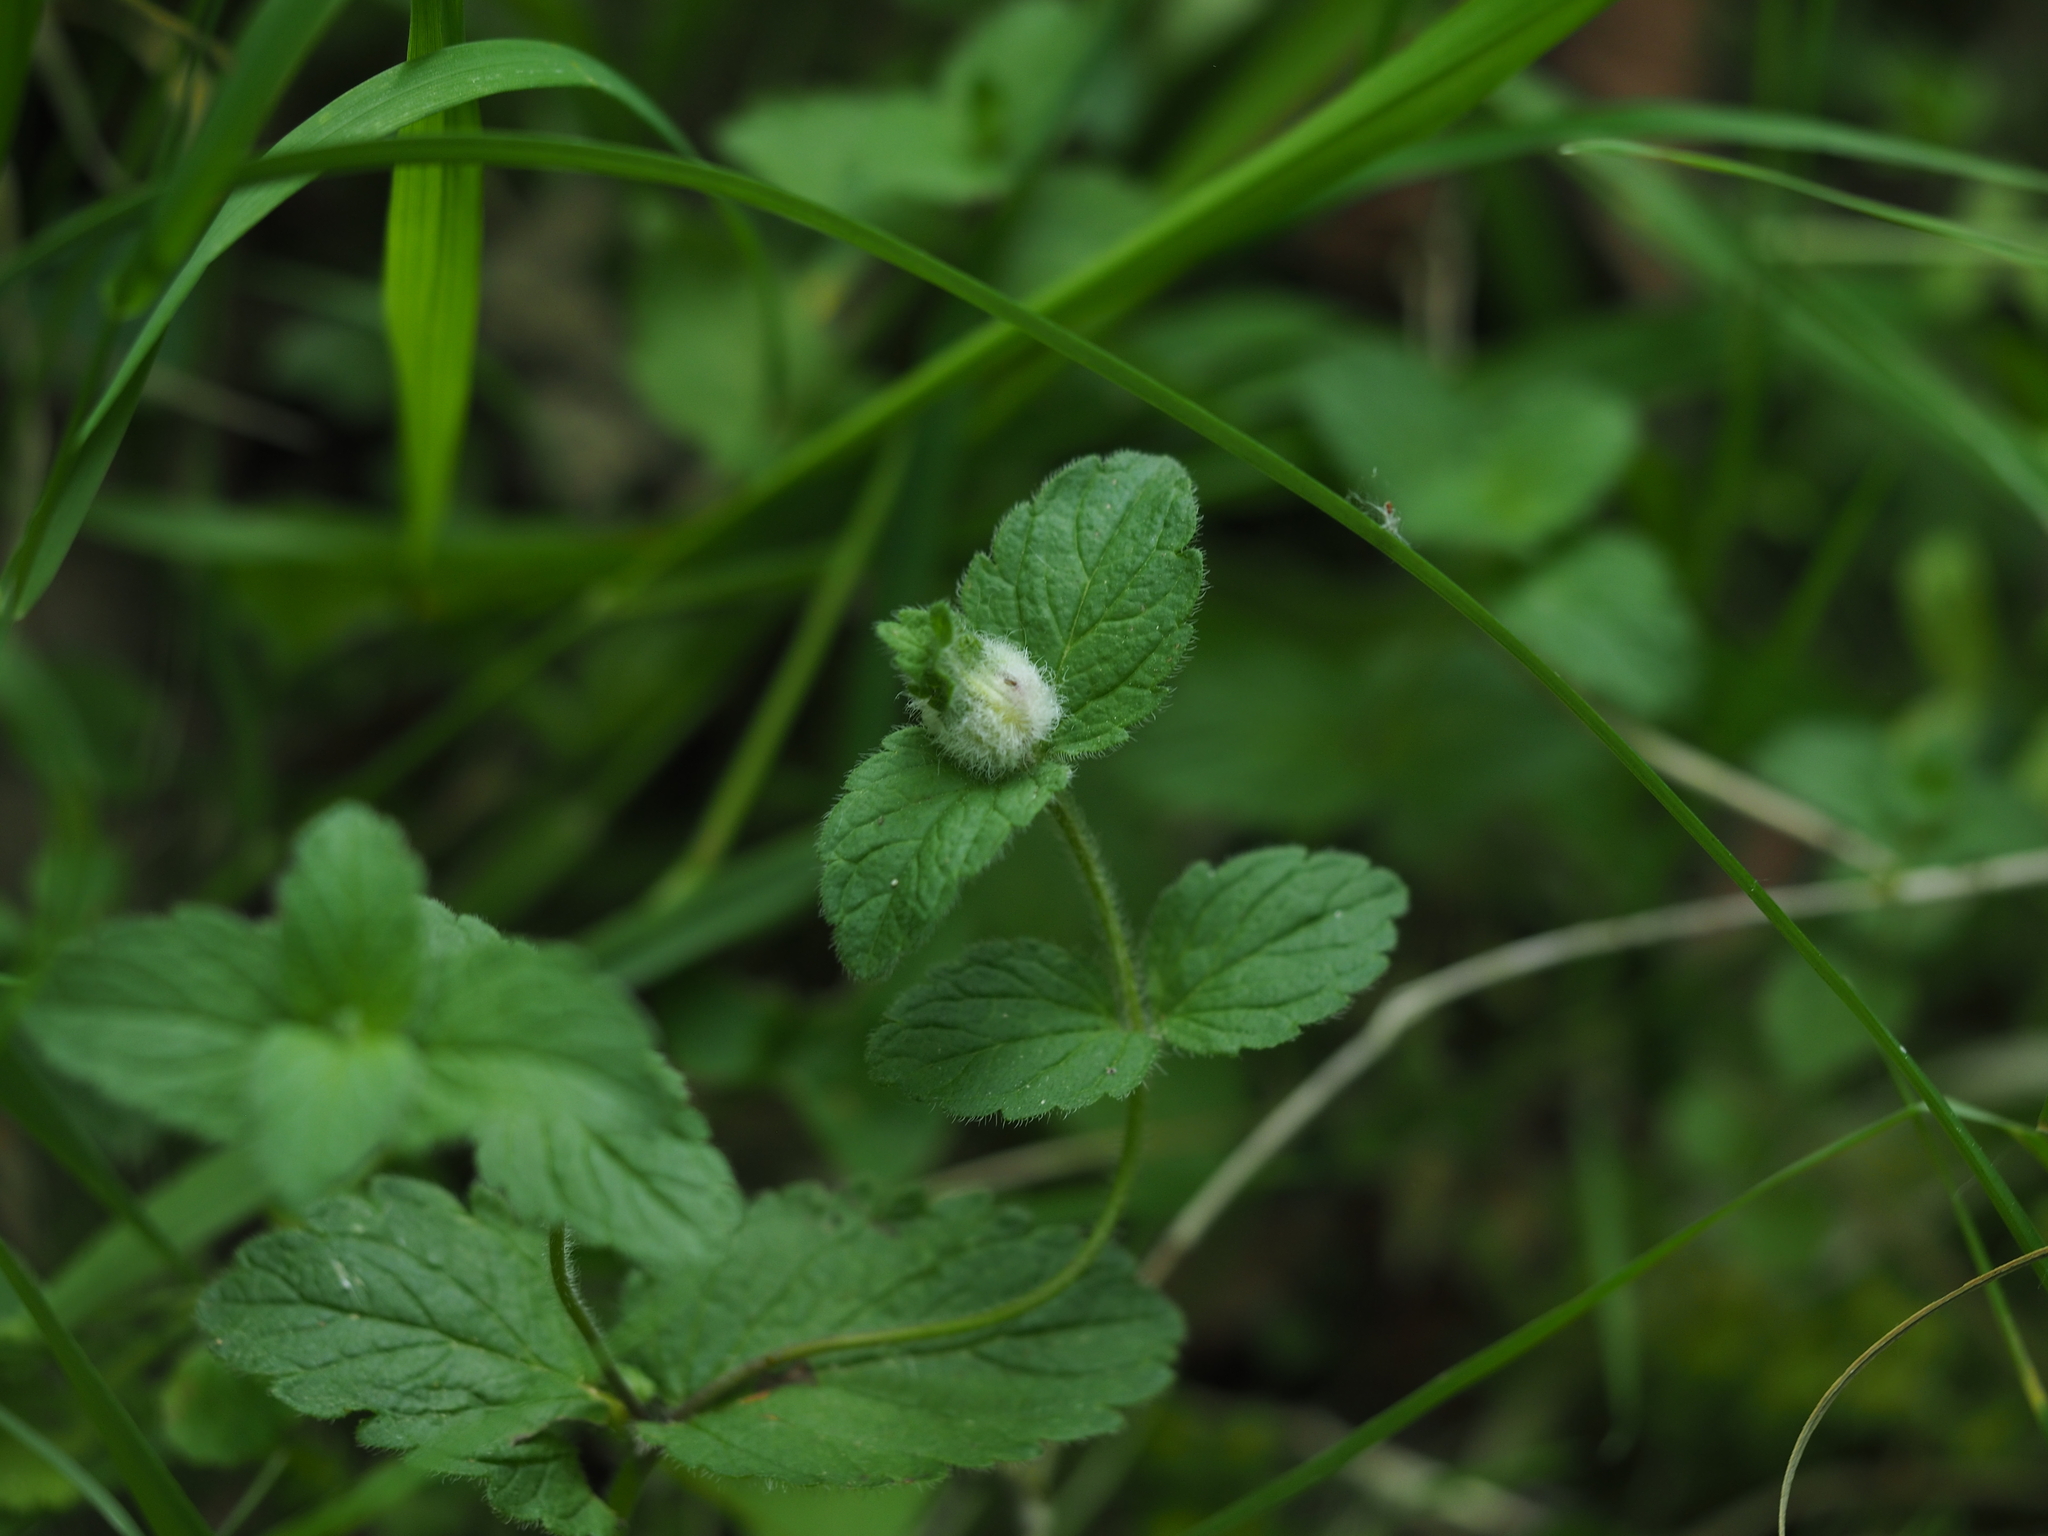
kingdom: Animalia
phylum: Arthropoda
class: Insecta
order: Diptera
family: Cecidomyiidae
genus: Jaapiella
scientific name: Jaapiella veronicae
